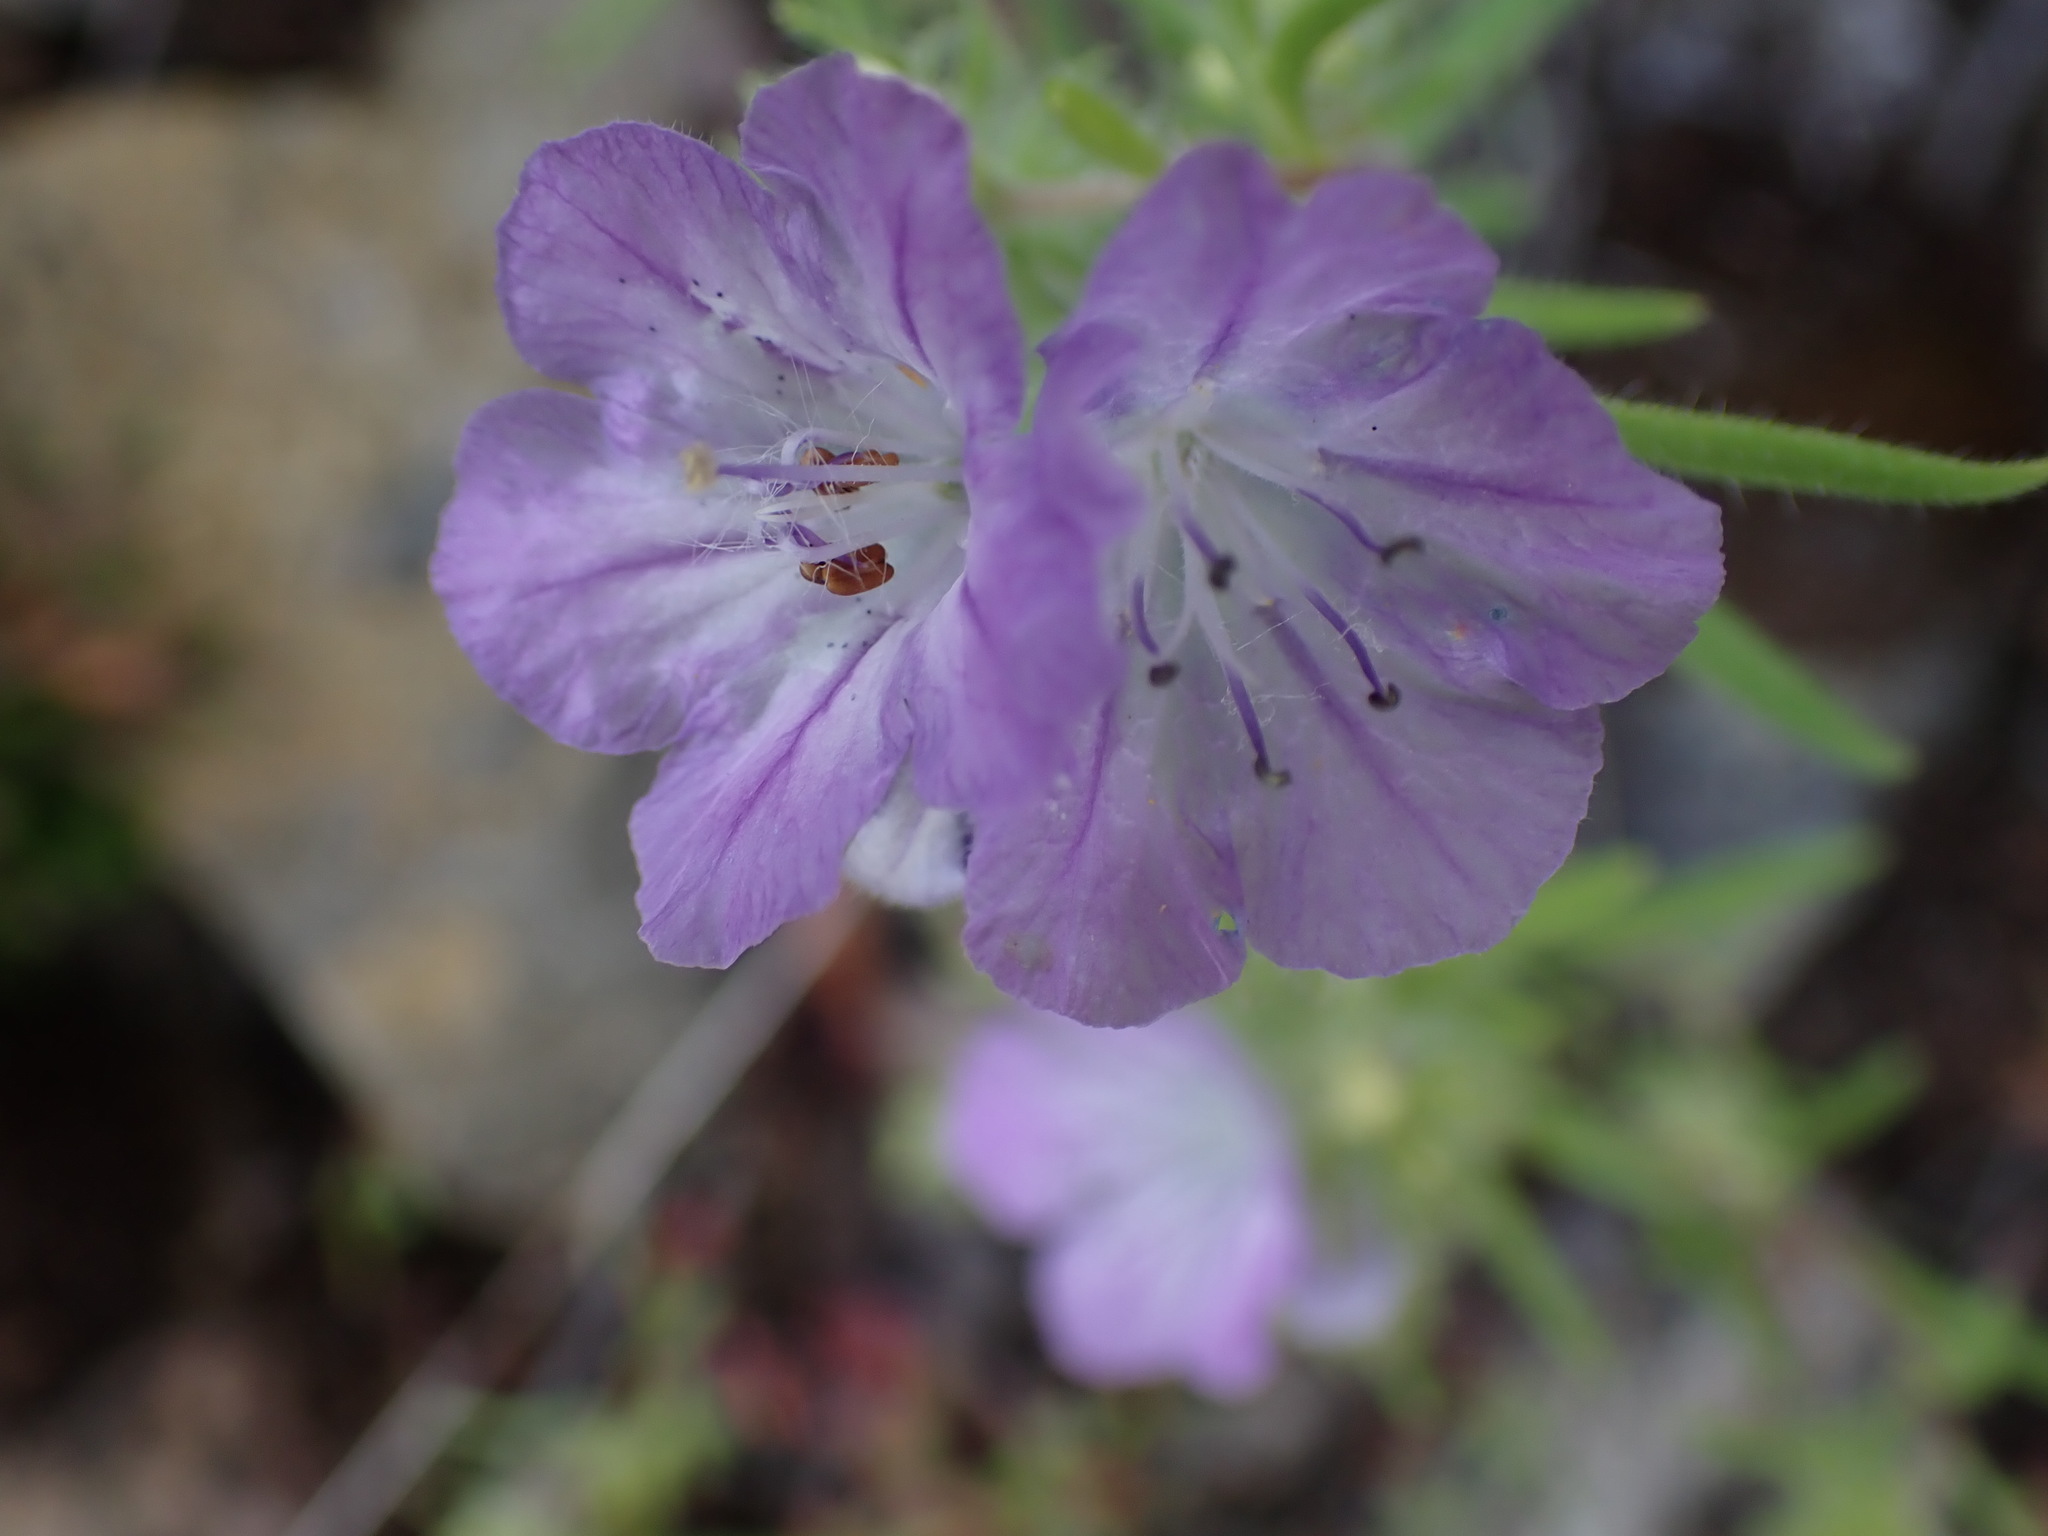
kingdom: Plantae
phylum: Tracheophyta
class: Magnoliopsida
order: Boraginales
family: Hydrophyllaceae
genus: Phacelia
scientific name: Phacelia linearis
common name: Linear-leaved phacelia
